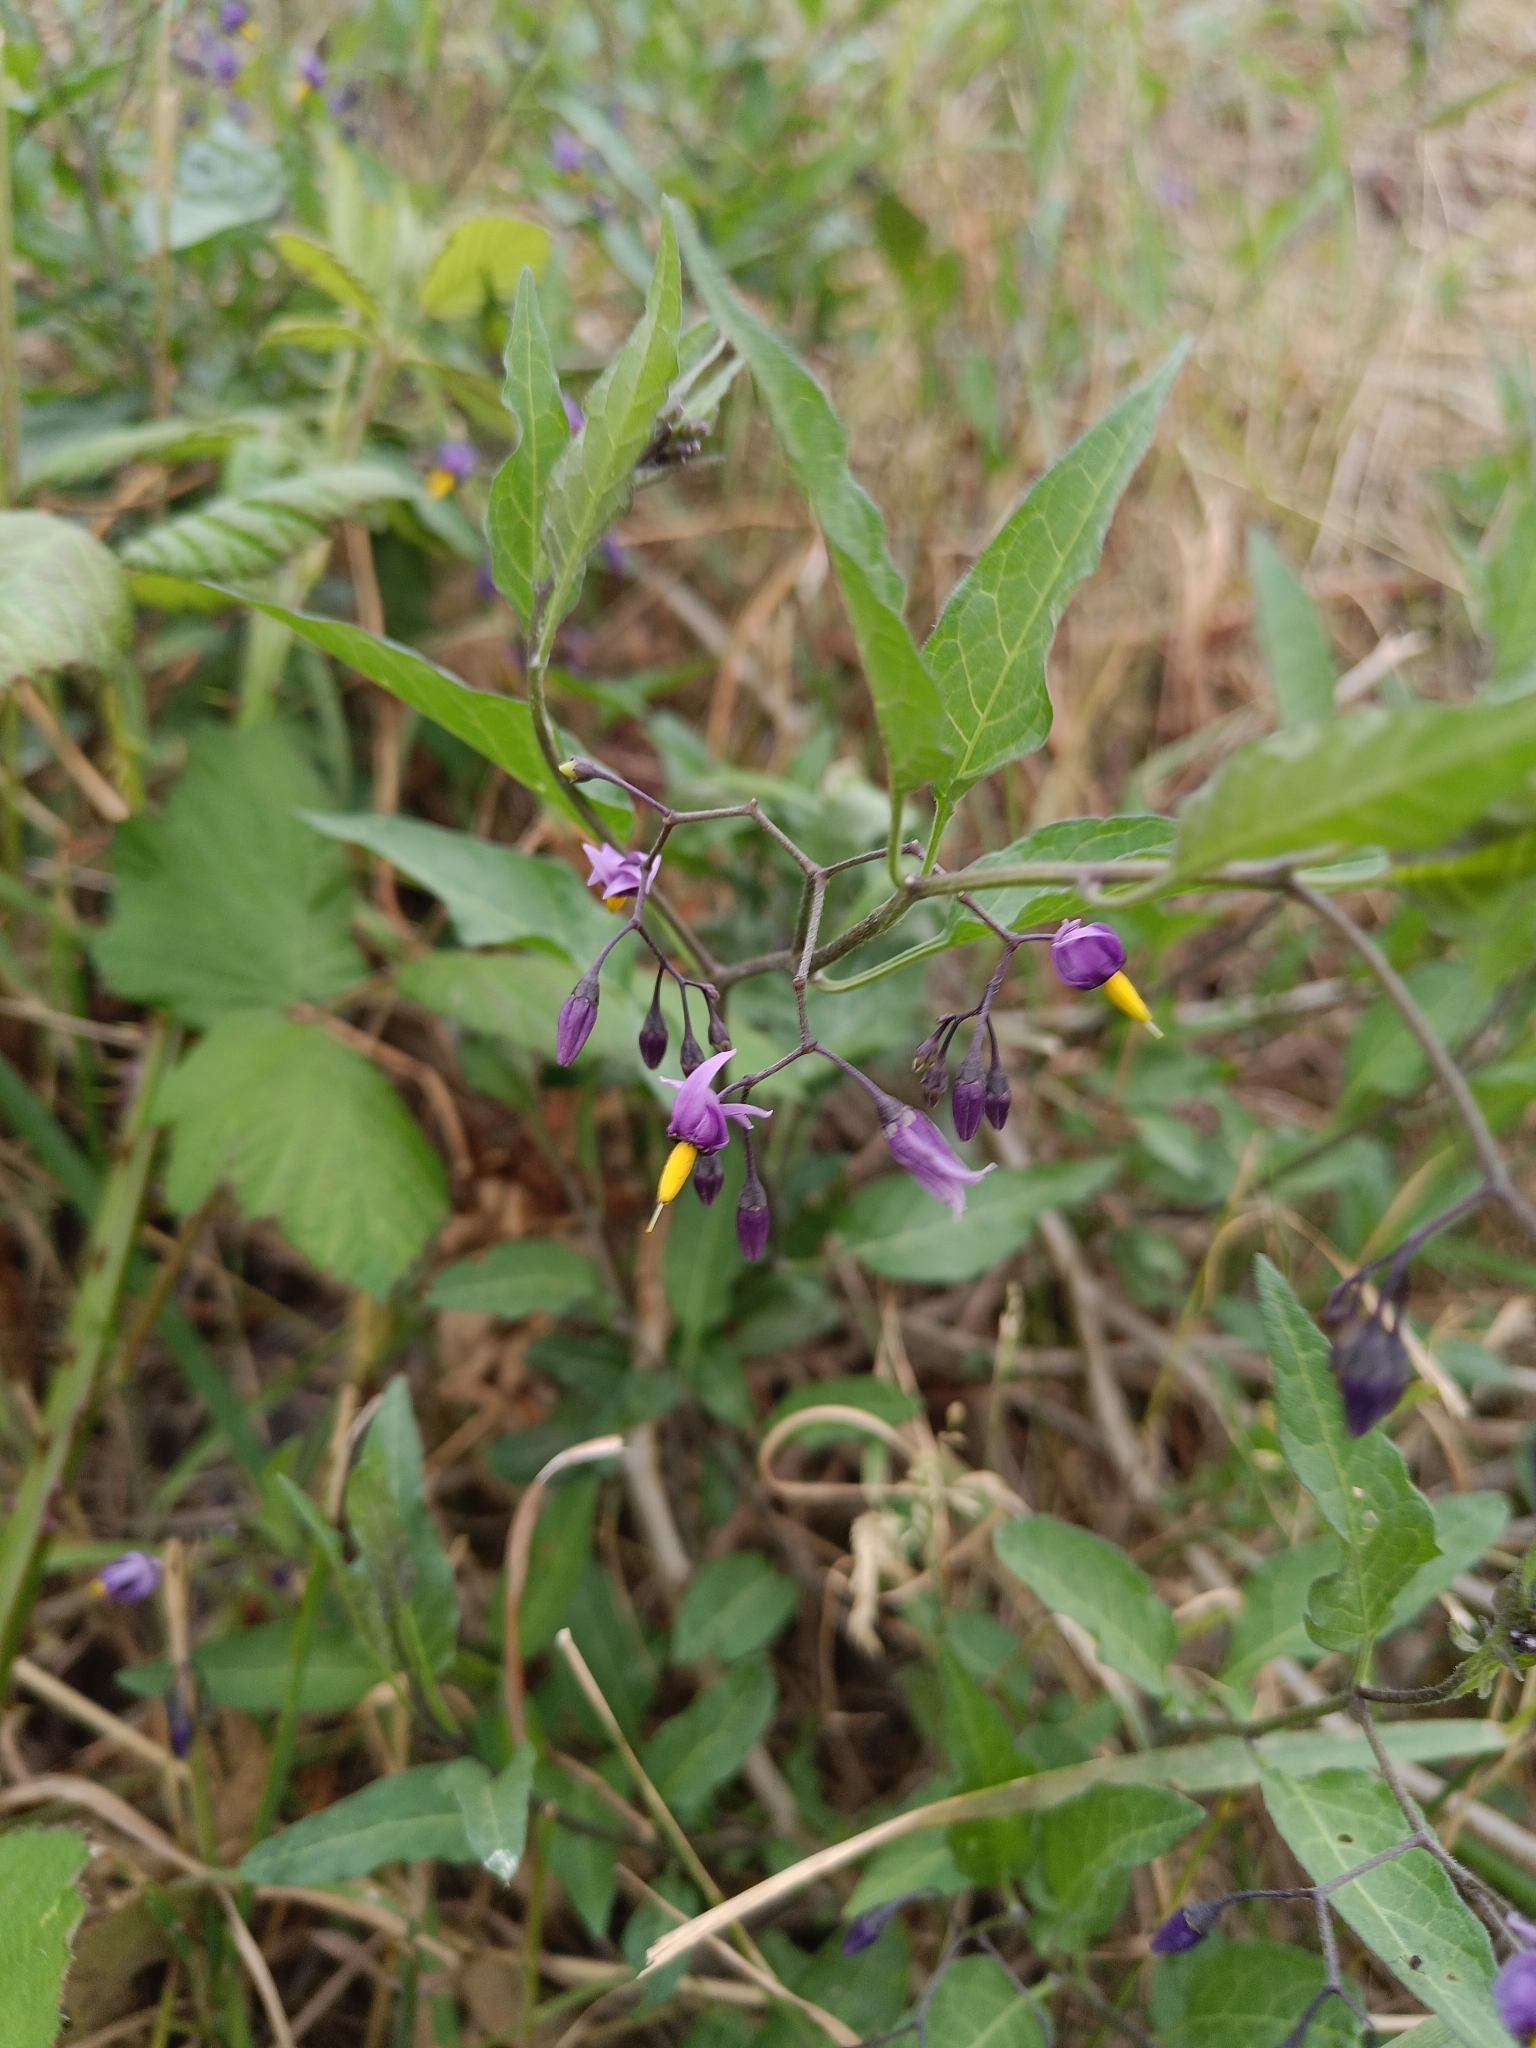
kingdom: Plantae
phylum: Tracheophyta
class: Magnoliopsida
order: Solanales
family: Solanaceae
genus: Solanum
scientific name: Solanum dulcamara
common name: Climbing nightshade
